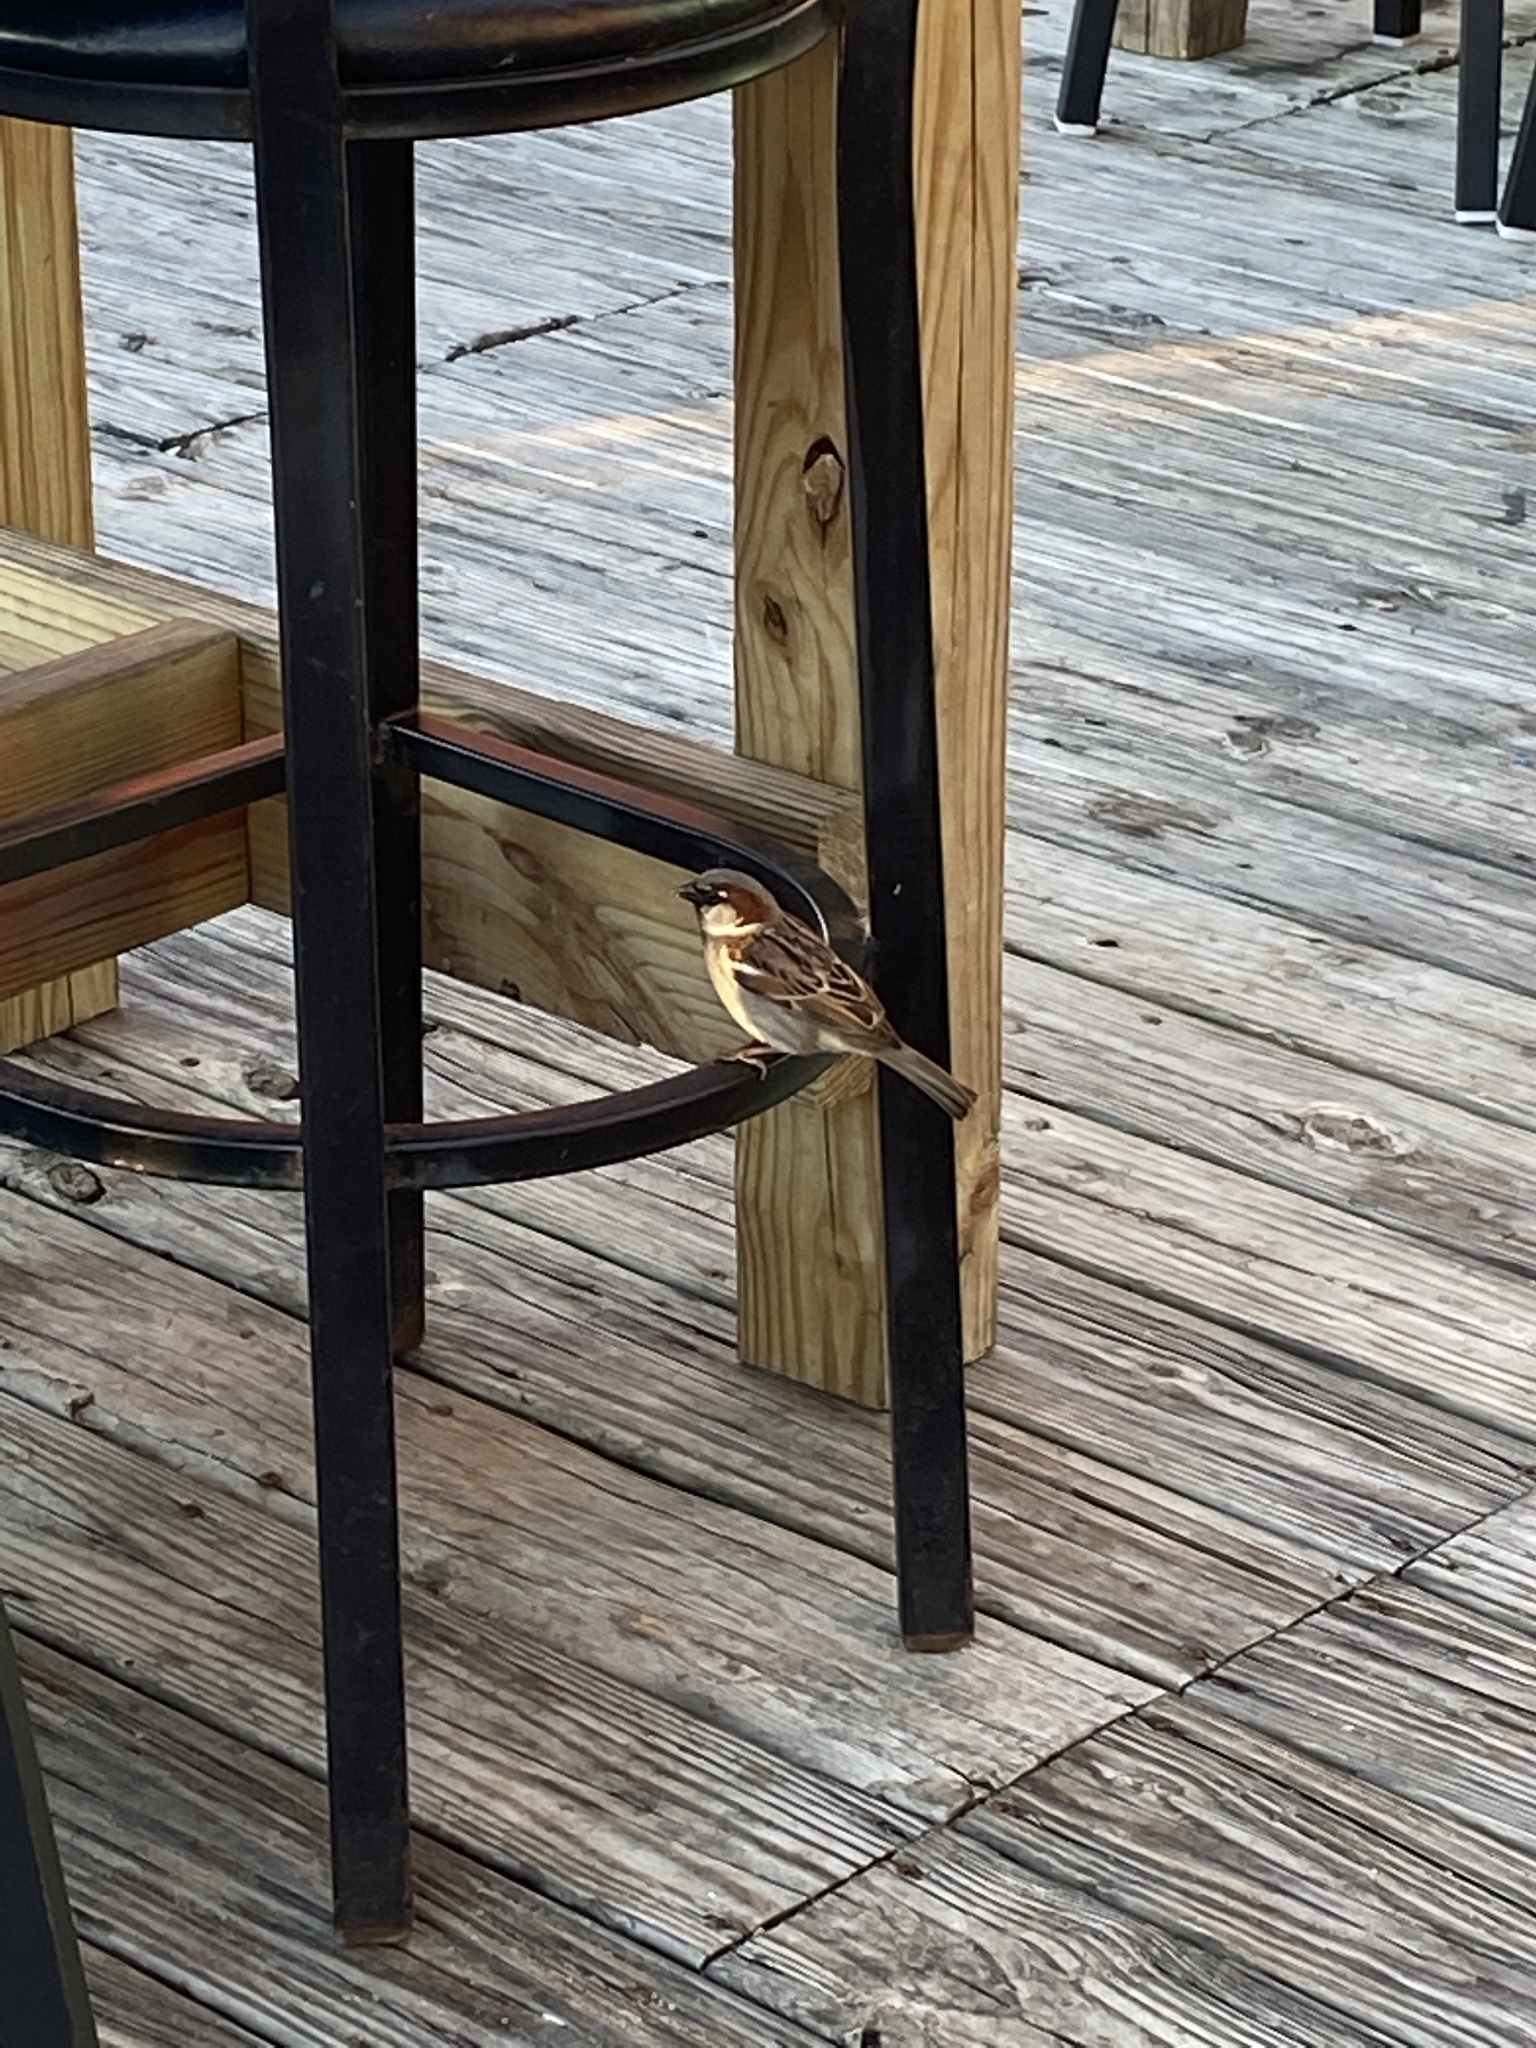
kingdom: Animalia
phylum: Chordata
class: Aves
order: Passeriformes
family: Passeridae
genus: Passer
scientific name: Passer domesticus
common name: House sparrow
